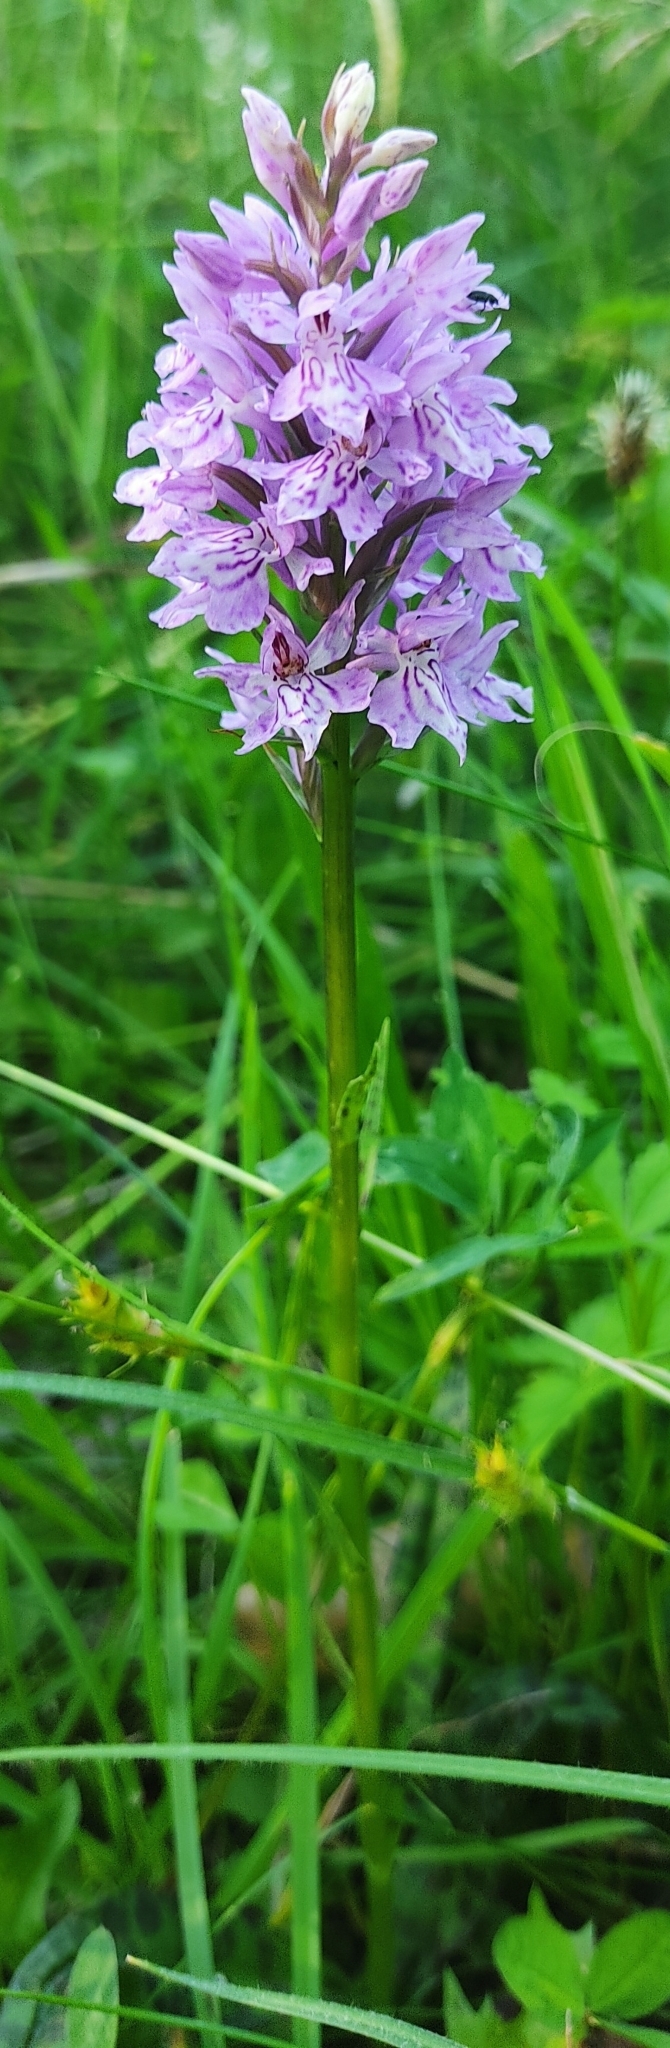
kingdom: Plantae
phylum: Tracheophyta
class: Liliopsida
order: Asparagales
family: Orchidaceae
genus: Dactylorhiza
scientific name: Dactylorhiza maculata
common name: Heath spotted-orchid
